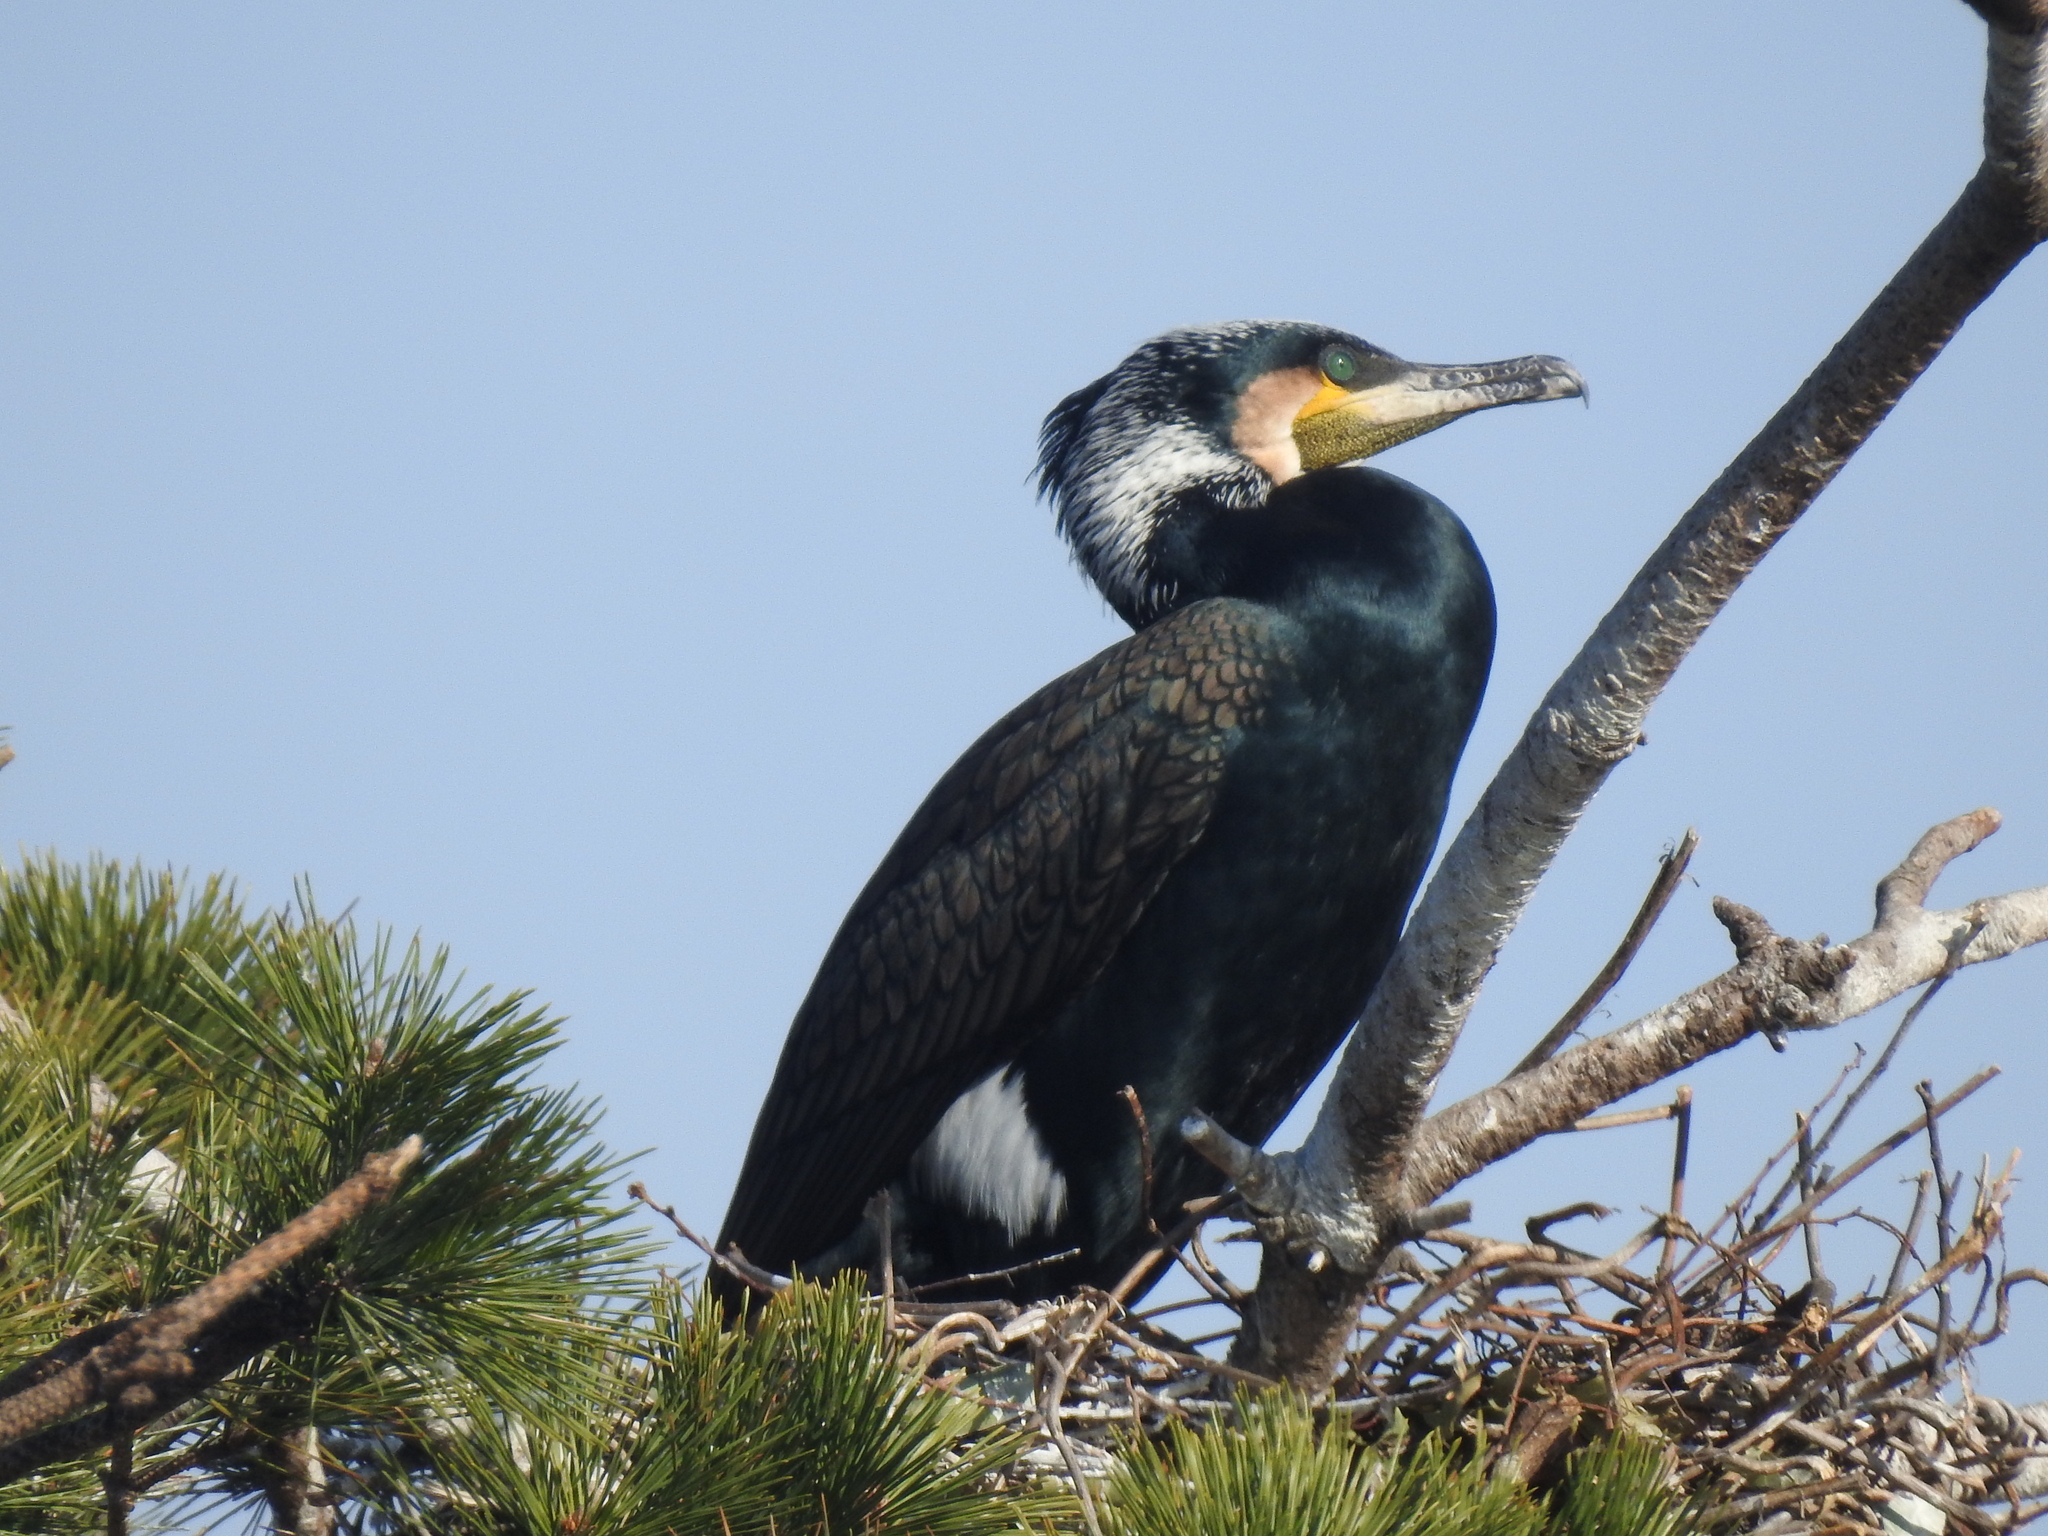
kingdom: Animalia
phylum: Chordata
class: Aves
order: Suliformes
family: Phalacrocoracidae
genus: Phalacrocorax
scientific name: Phalacrocorax carbo
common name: Great cormorant
